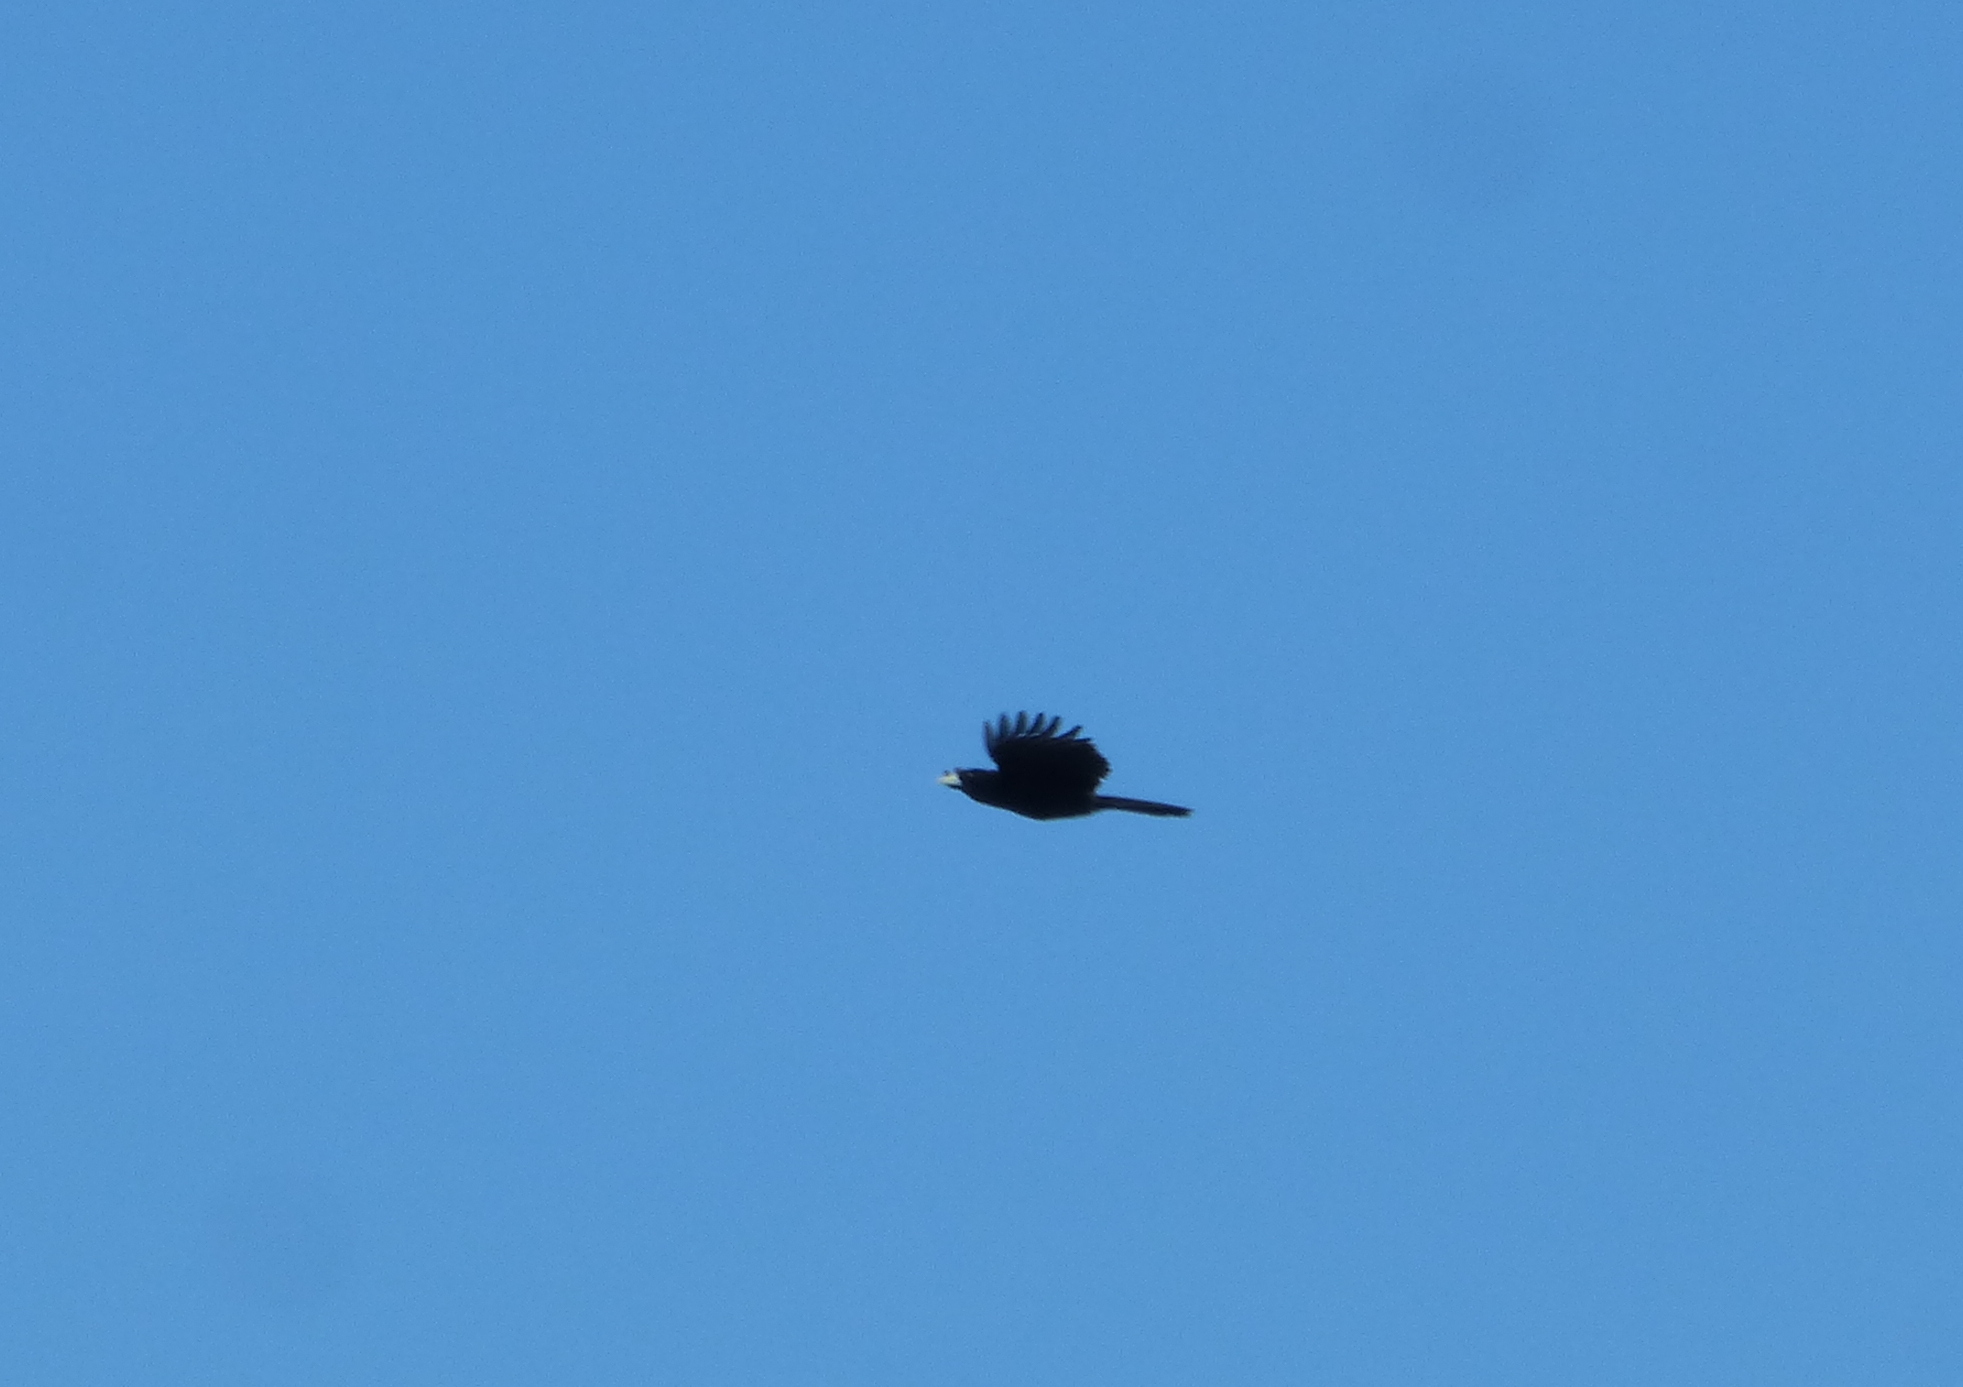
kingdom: Animalia
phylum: Chordata
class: Aves
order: Passeriformes
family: Icteridae
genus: Cacicus
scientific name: Cacicus solitarius
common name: Solitary cacique
